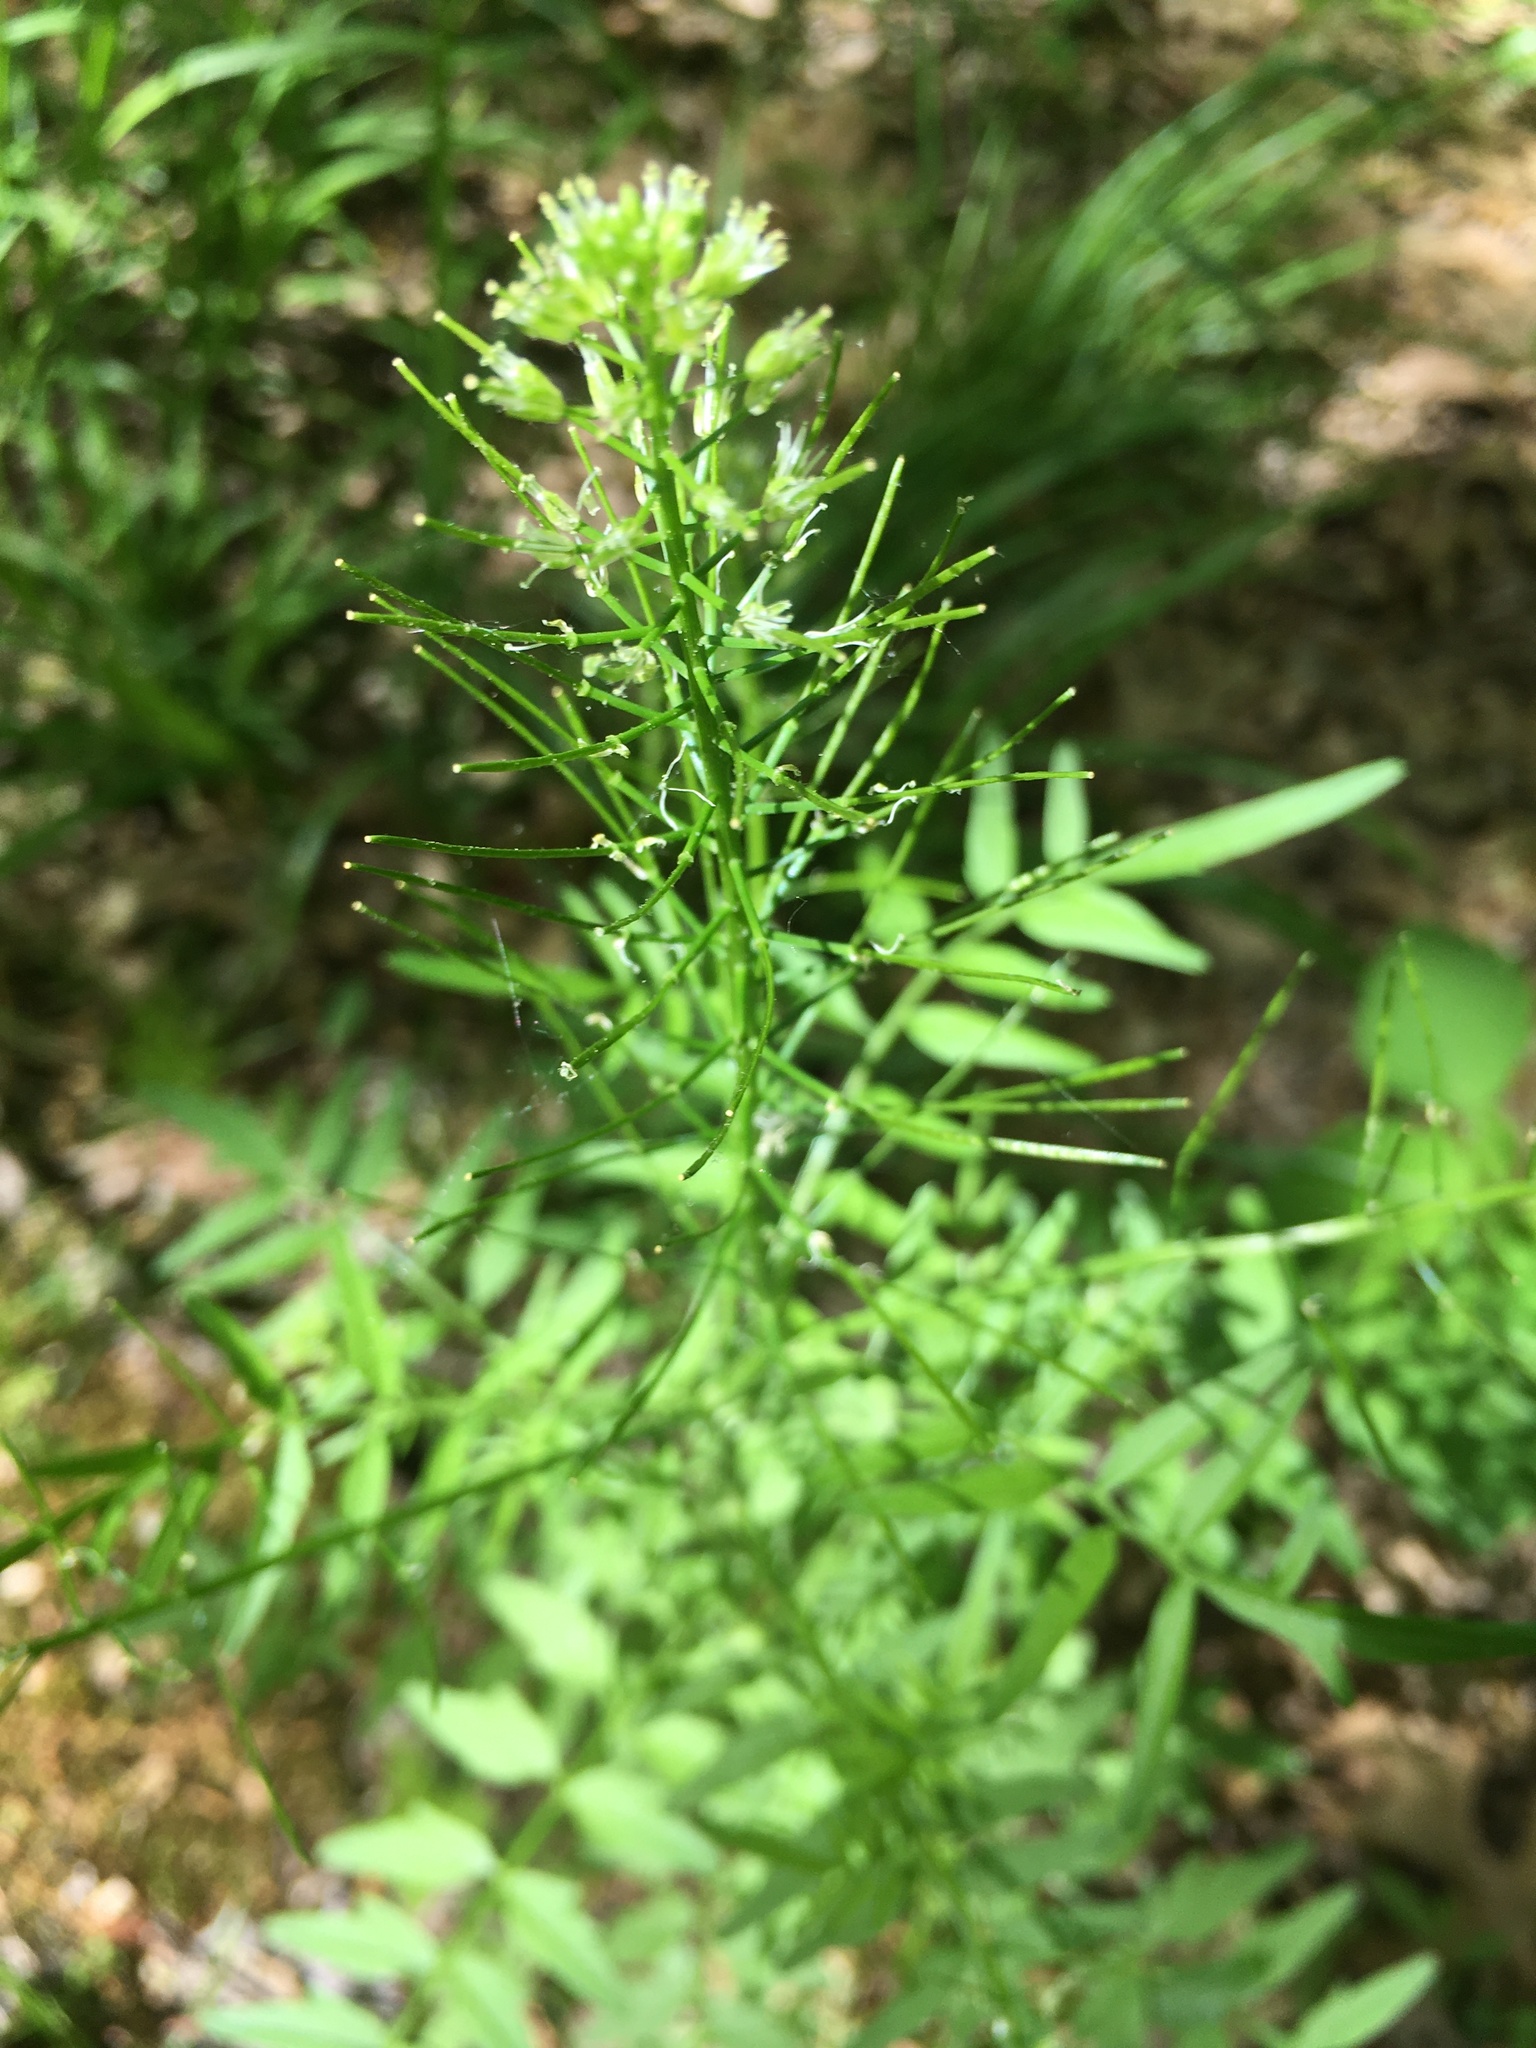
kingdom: Plantae
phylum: Tracheophyta
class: Magnoliopsida
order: Brassicales
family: Brassicaceae
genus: Cardamine
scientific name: Cardamine impatiens
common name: Narrow-leaved bitter-cress
